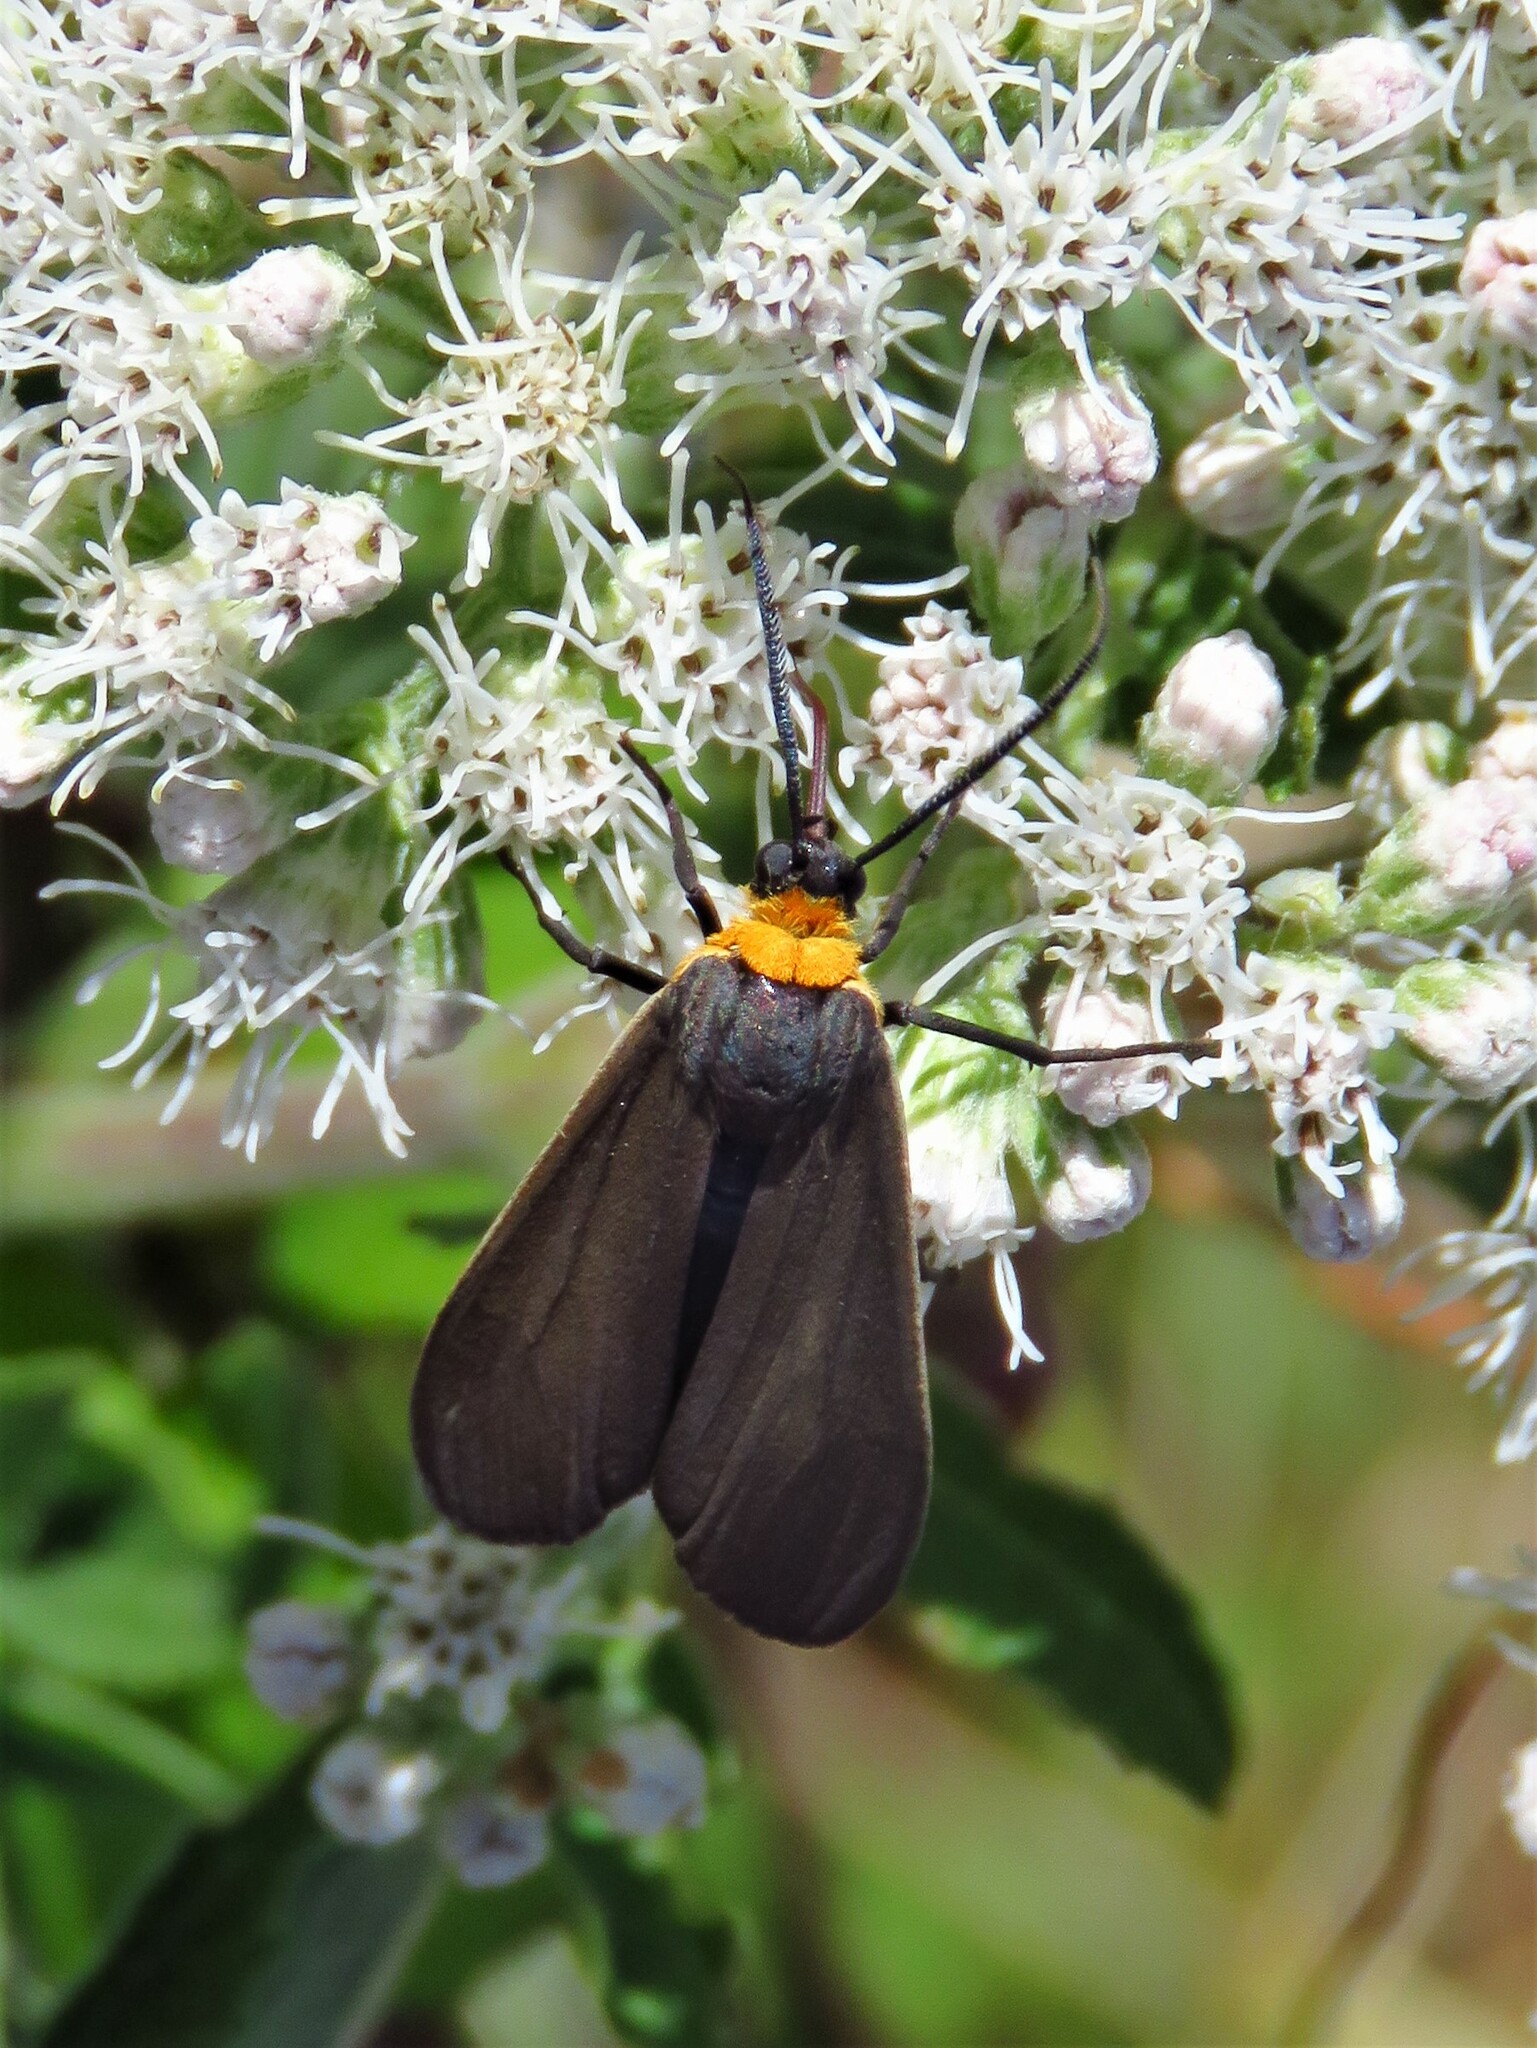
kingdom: Animalia
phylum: Arthropoda
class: Insecta
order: Lepidoptera
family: Erebidae
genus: Cisseps
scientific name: Cisseps fulvicollis
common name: Yellow-collared scape moth
